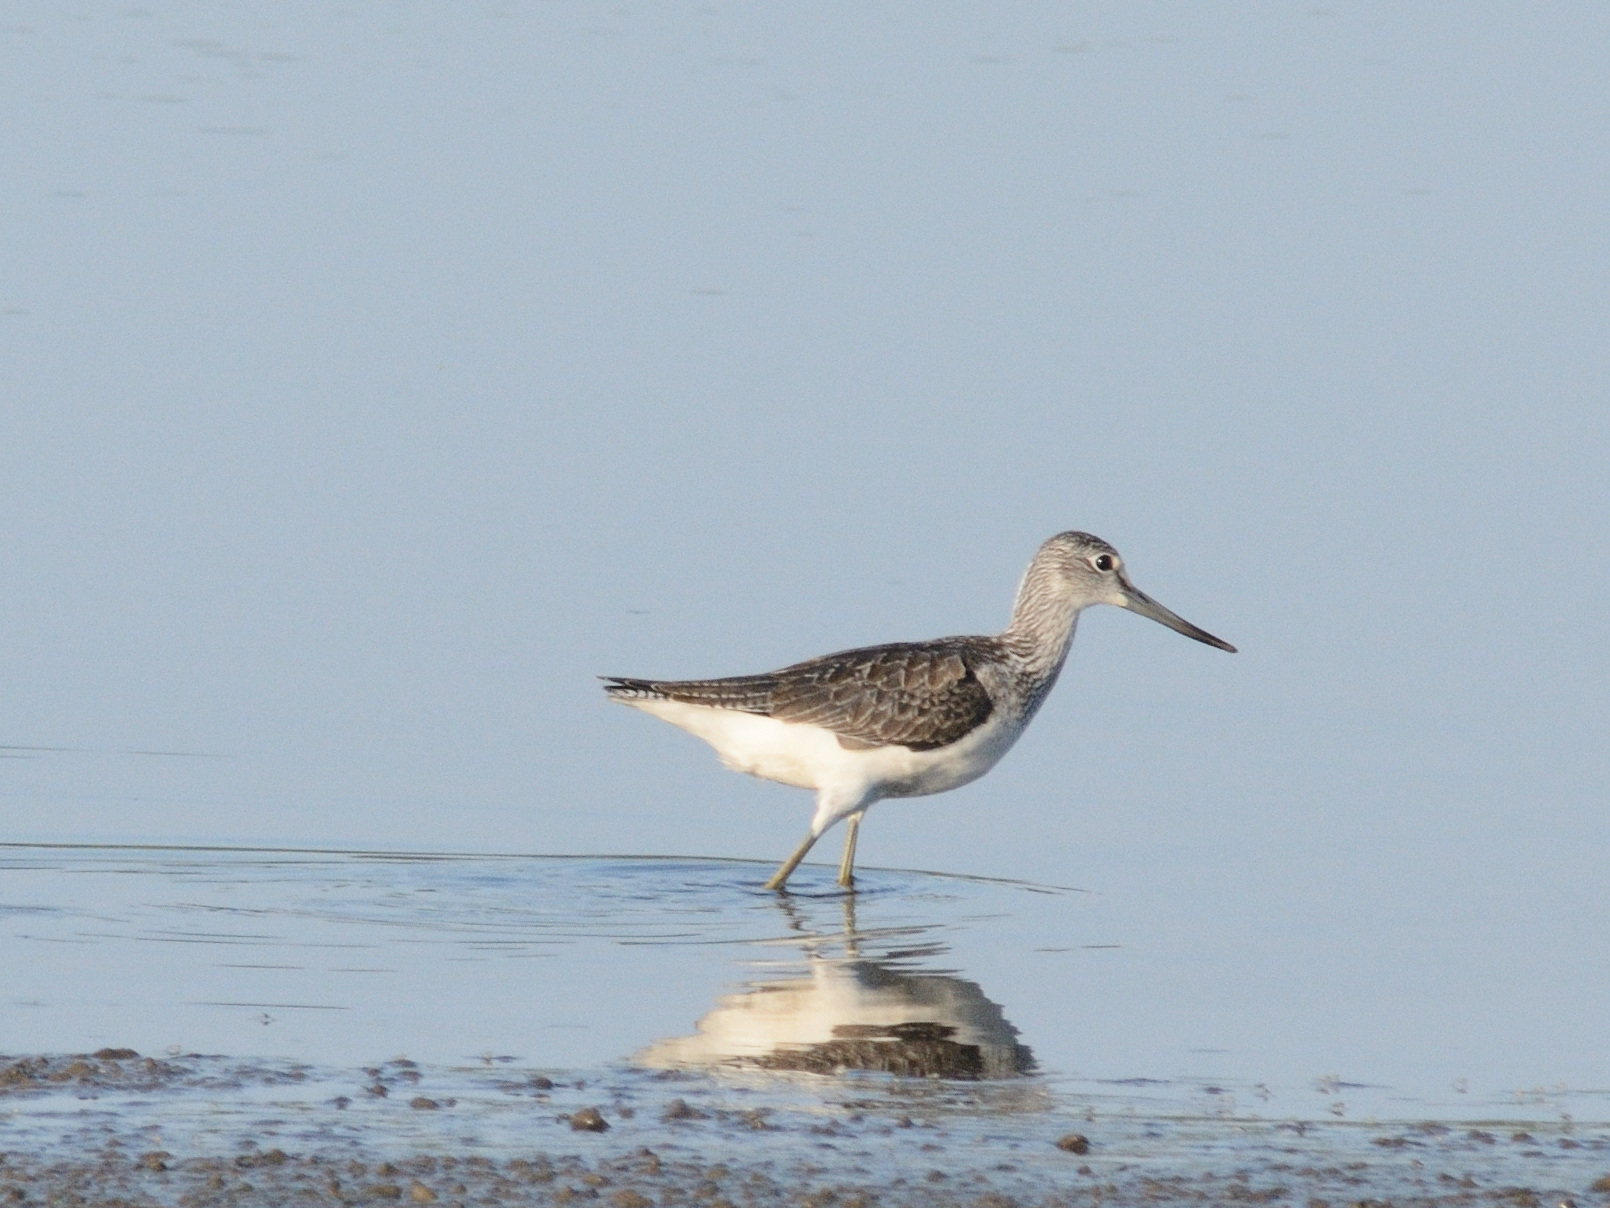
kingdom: Animalia
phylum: Chordata
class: Aves
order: Charadriiformes
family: Scolopacidae
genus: Tringa
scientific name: Tringa nebularia
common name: Common greenshank
